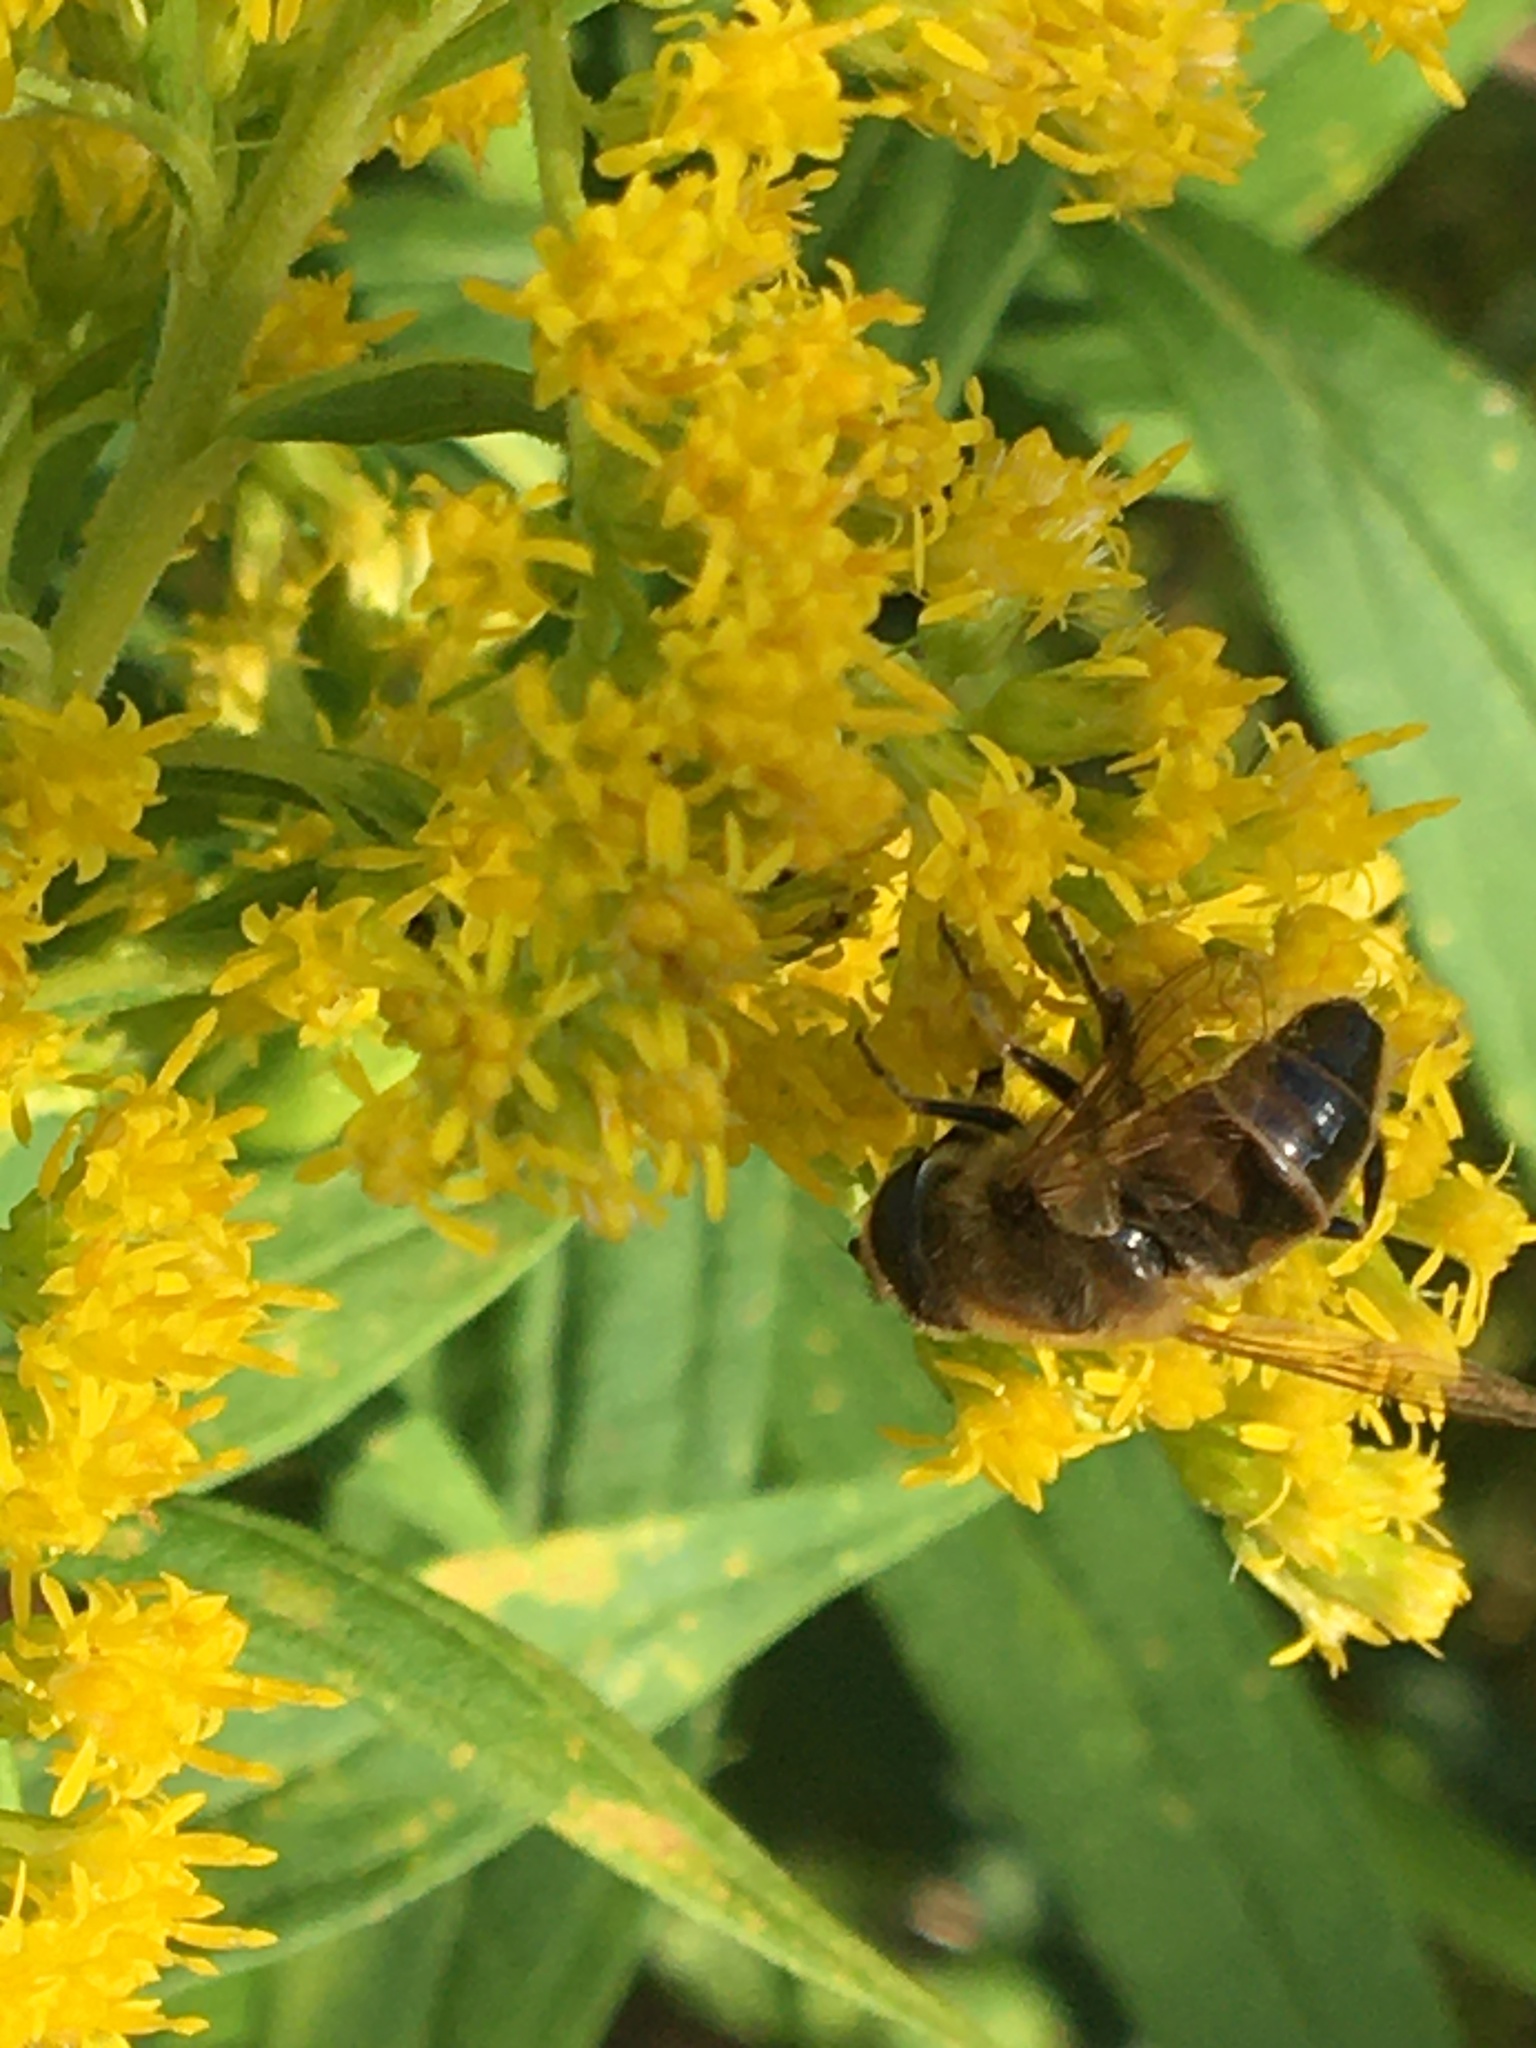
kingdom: Animalia
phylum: Arthropoda
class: Insecta
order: Diptera
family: Syrphidae
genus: Eristalis
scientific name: Eristalis tenax
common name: Drone fly
